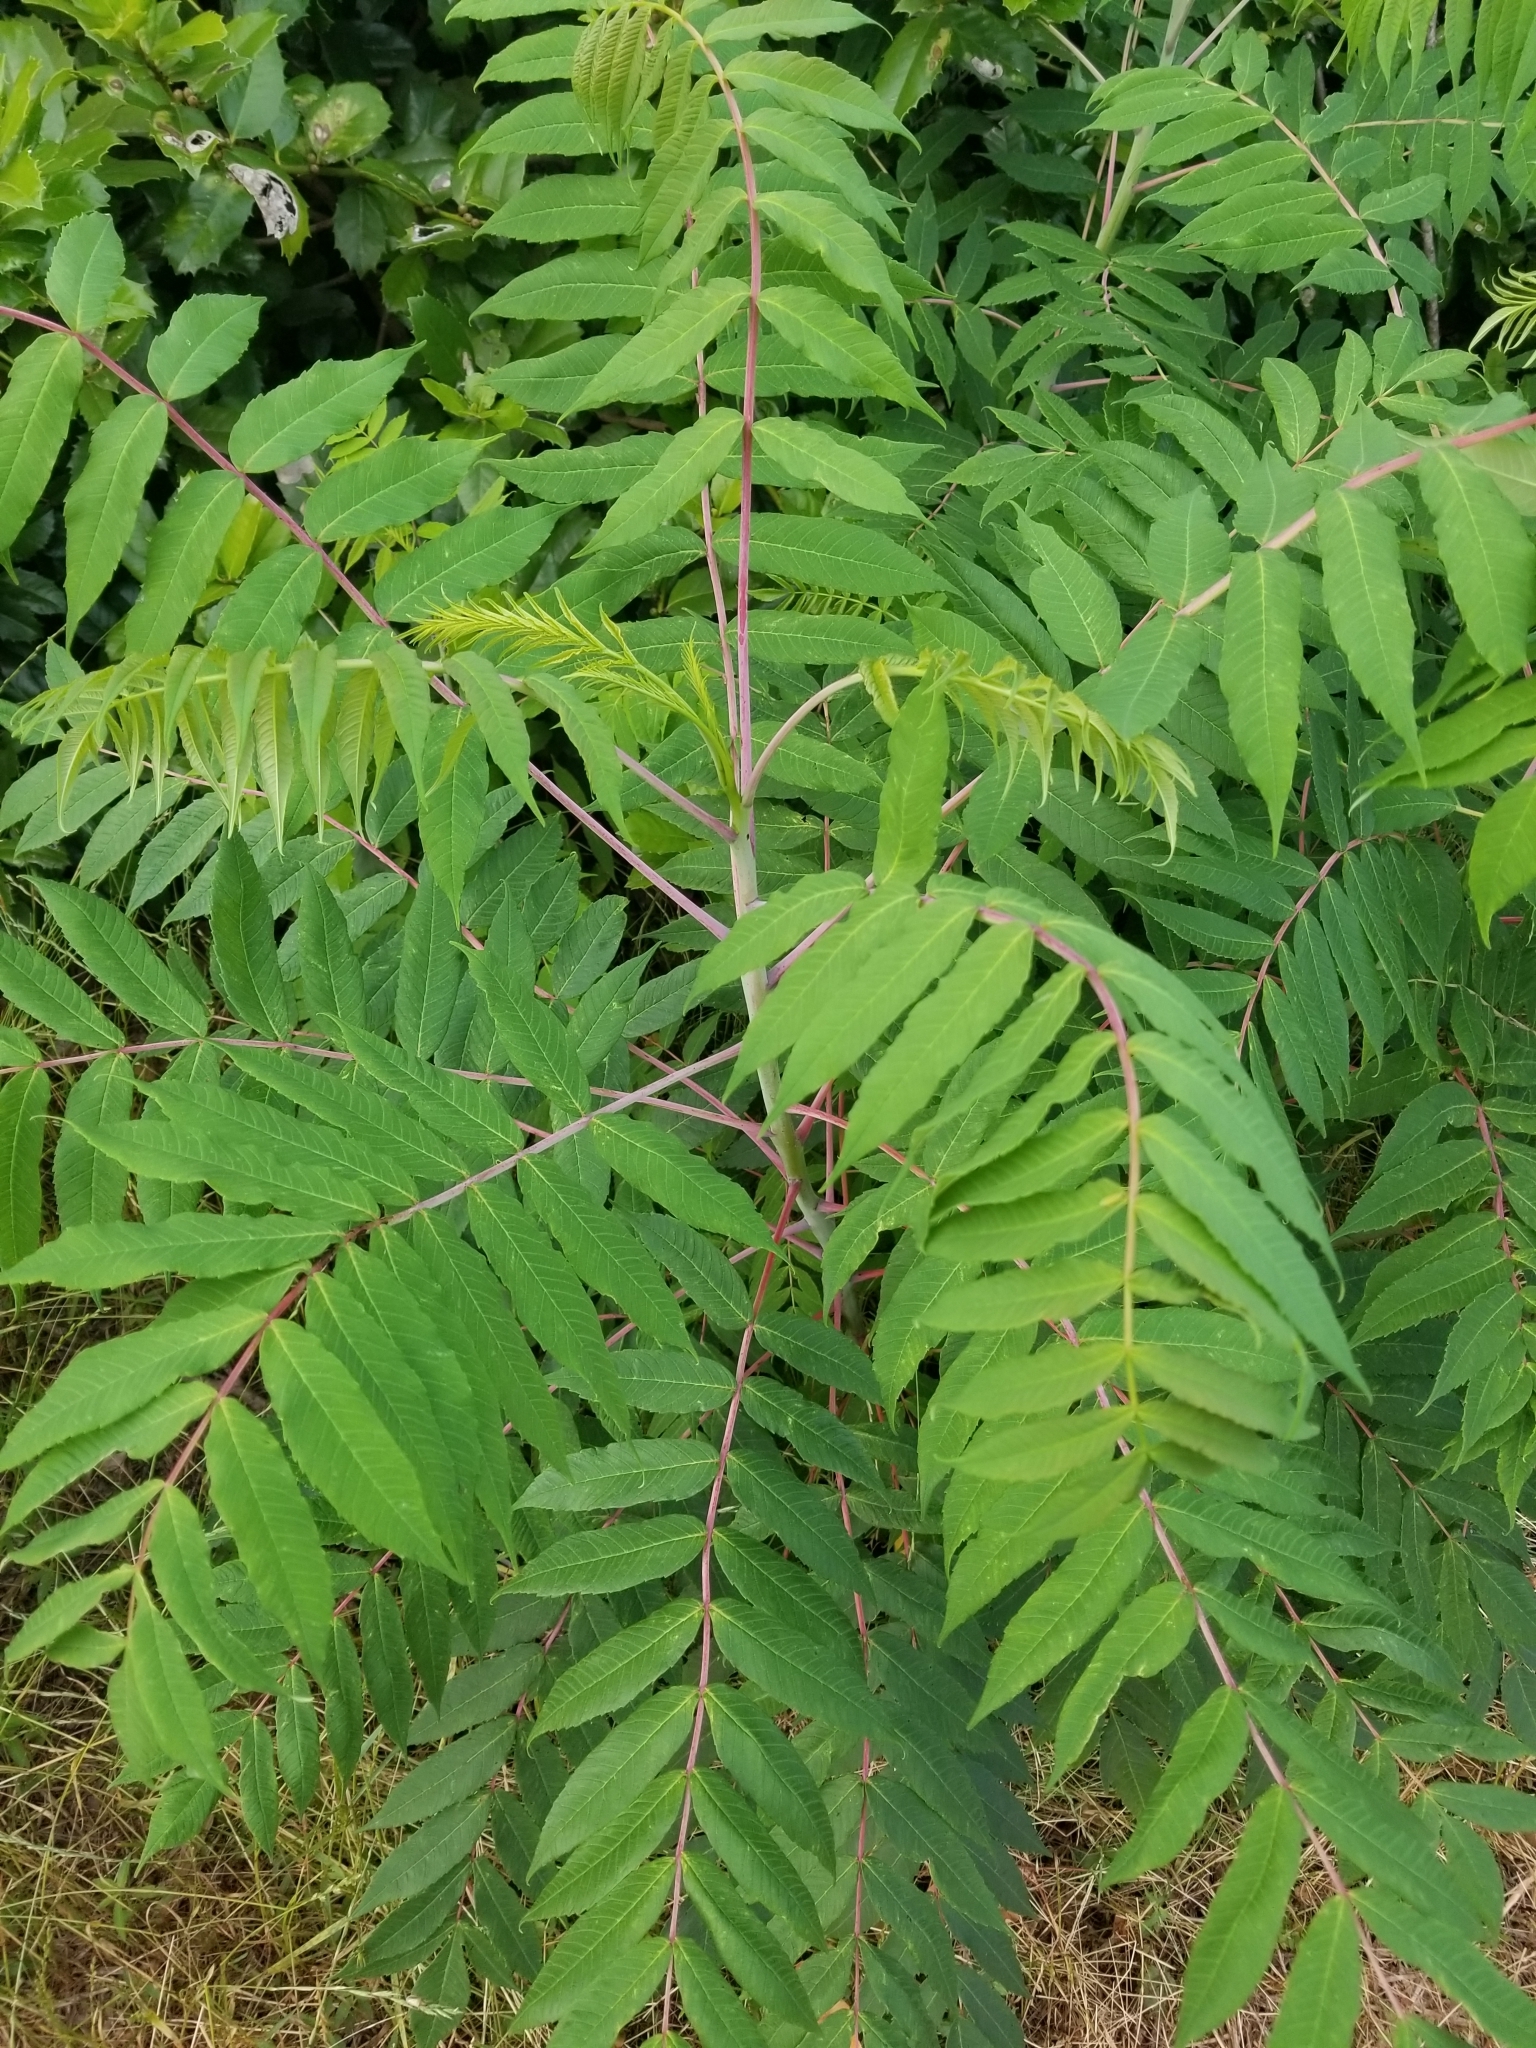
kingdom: Plantae
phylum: Tracheophyta
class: Magnoliopsida
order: Sapindales
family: Anacardiaceae
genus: Rhus
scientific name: Rhus glabra
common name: Scarlet sumac
